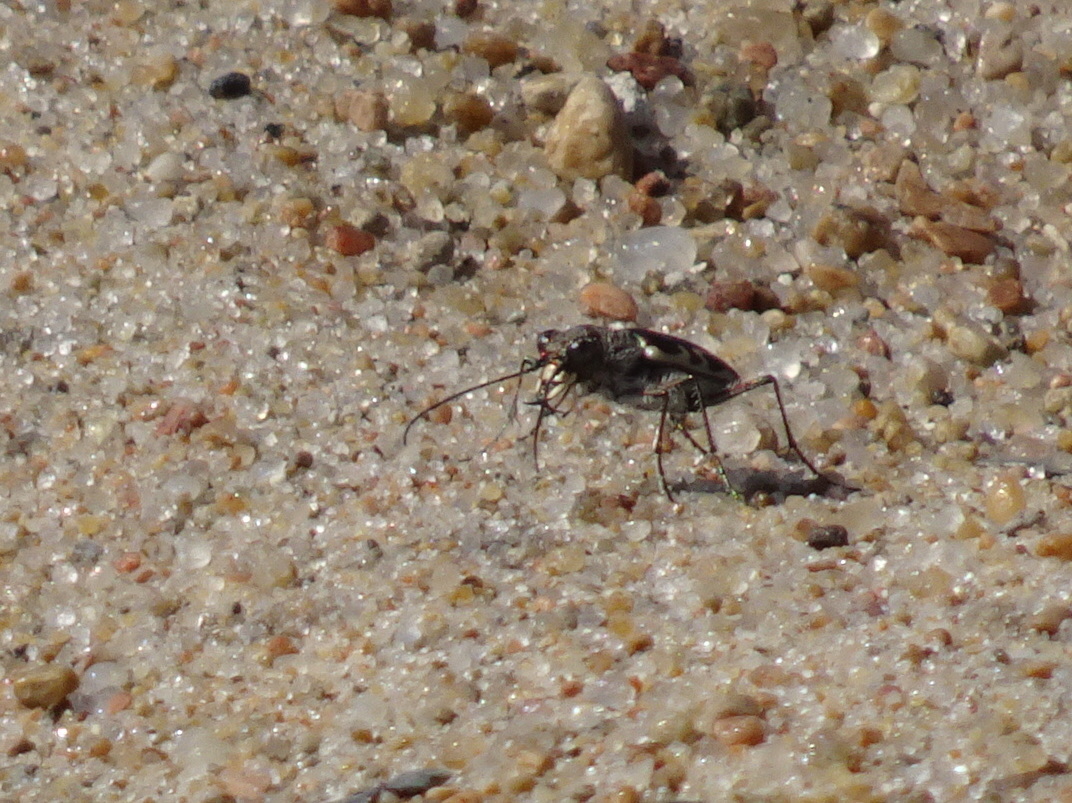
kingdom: Animalia
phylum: Arthropoda
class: Insecta
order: Coleoptera
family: Carabidae
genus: Cicindela
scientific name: Cicindela repanda
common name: Bronzed tiger beetle
